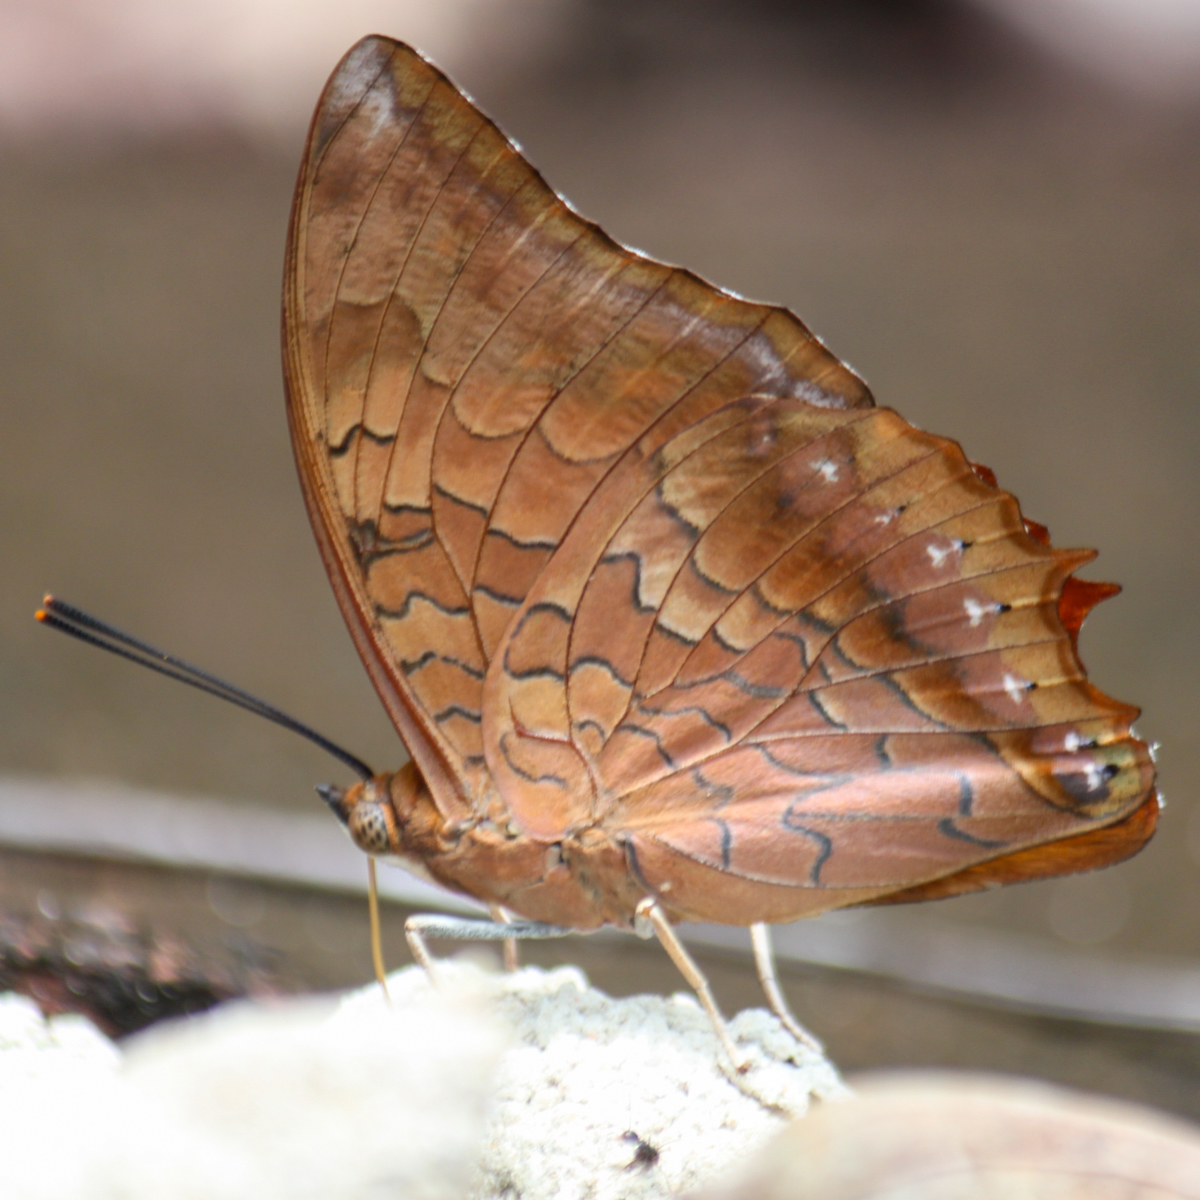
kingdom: Animalia
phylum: Arthropoda
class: Insecta
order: Lepidoptera
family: Nymphalidae
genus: Charaxes
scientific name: Charaxes bernardus
